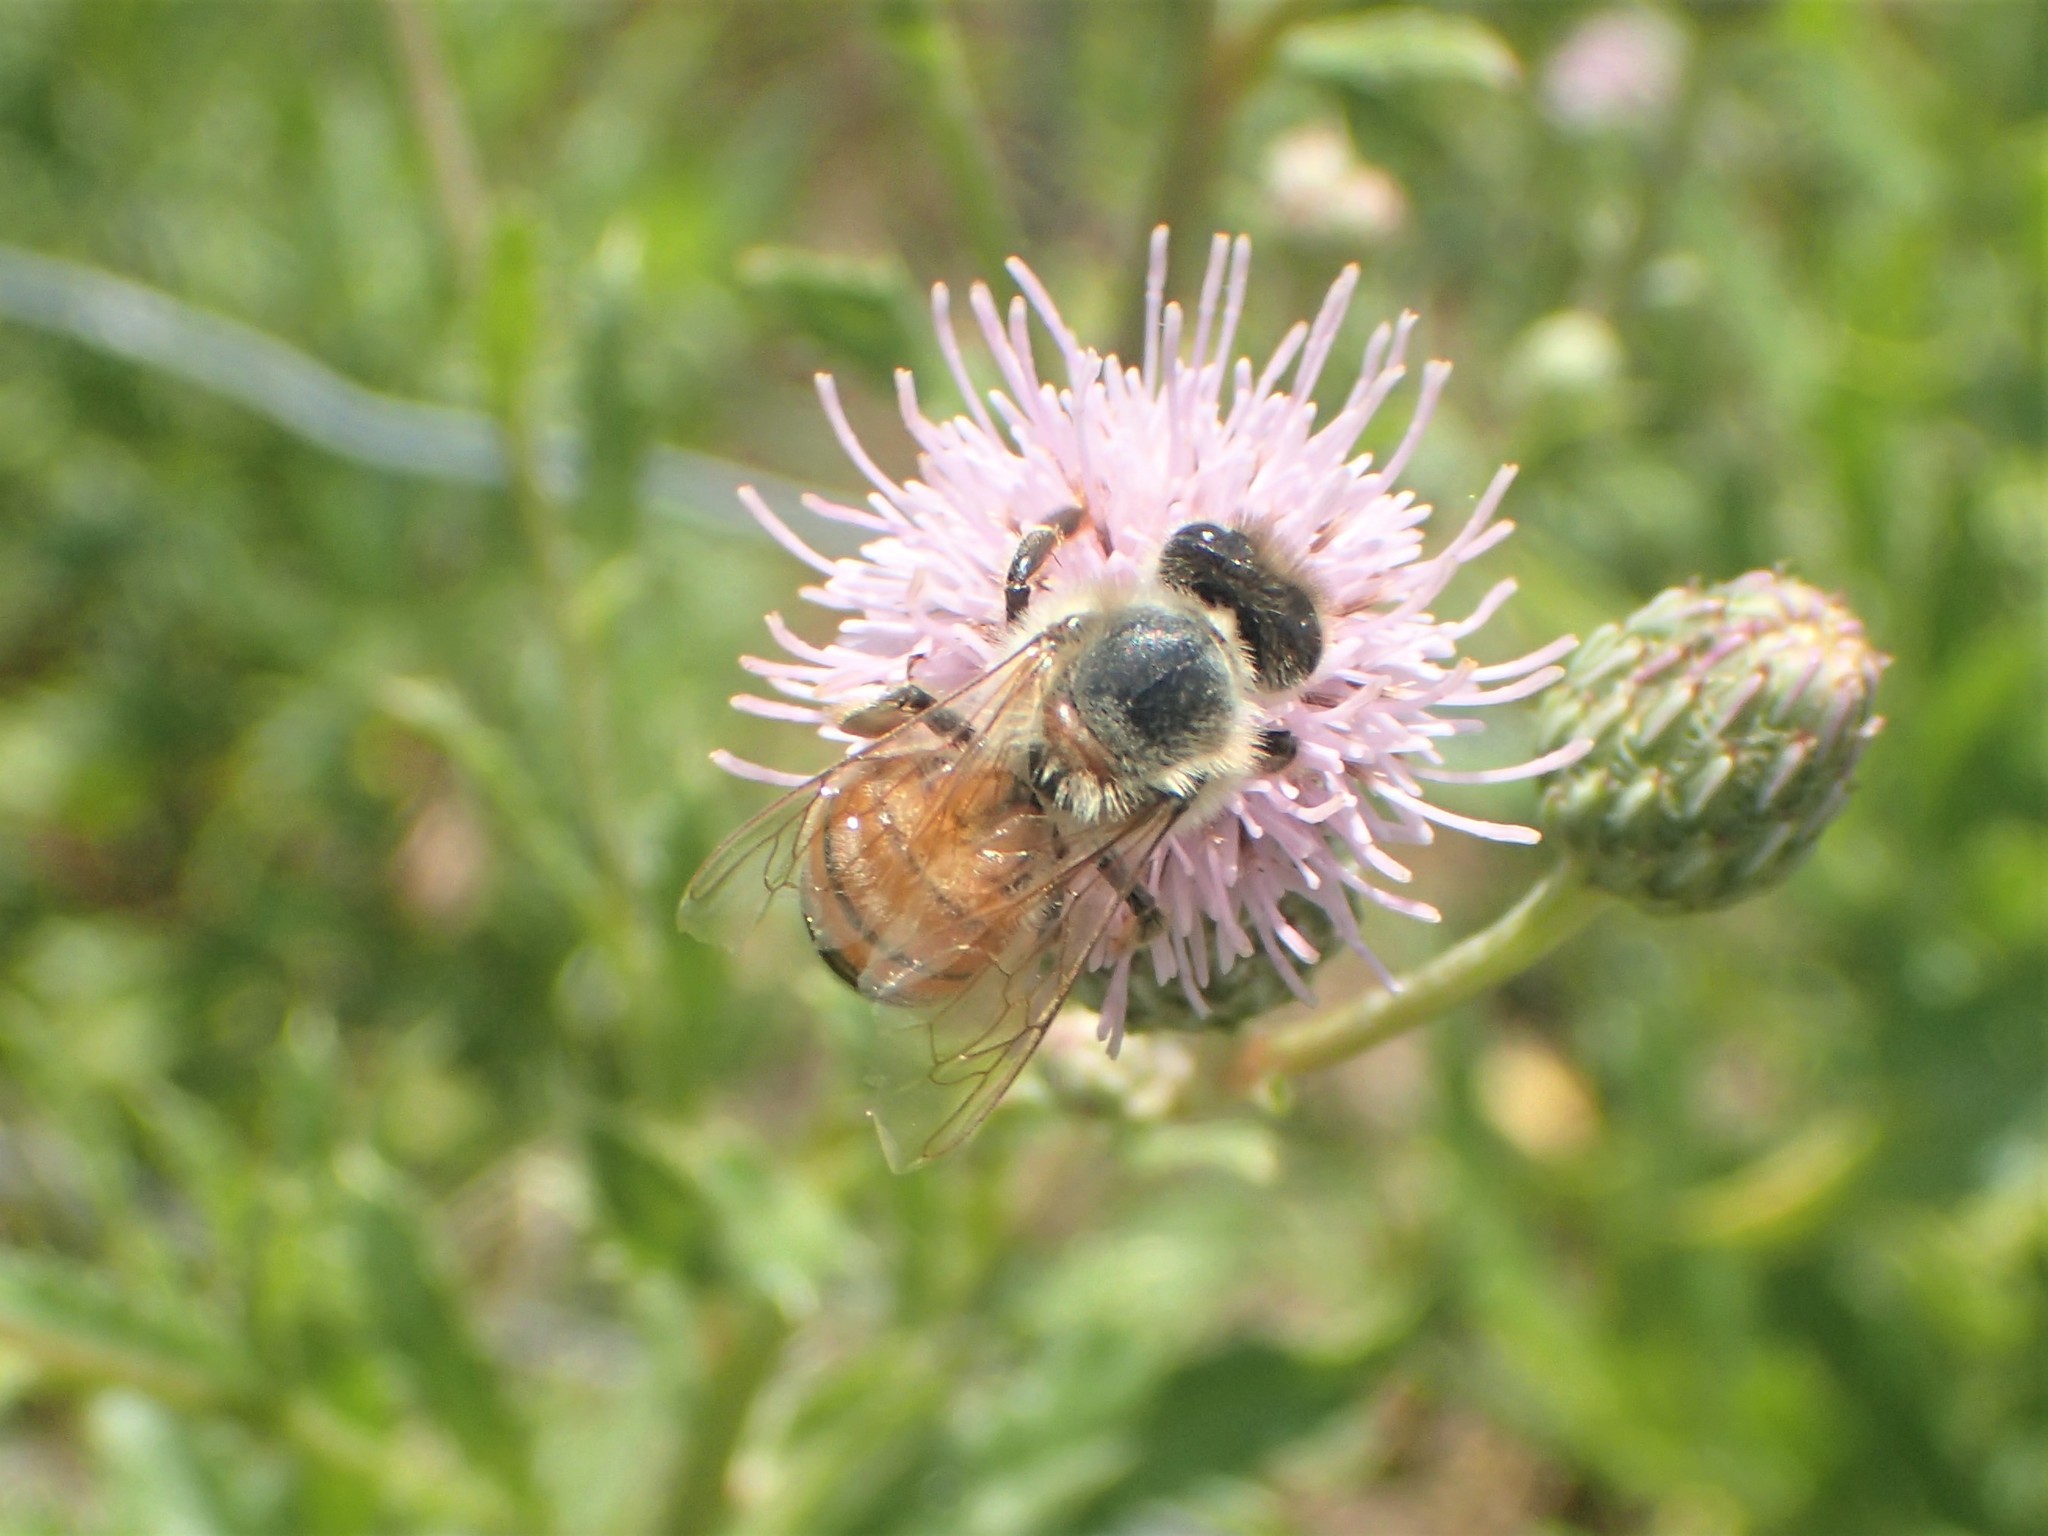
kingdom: Animalia
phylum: Arthropoda
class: Insecta
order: Hymenoptera
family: Apidae
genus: Apis
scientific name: Apis mellifera
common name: Honey bee
